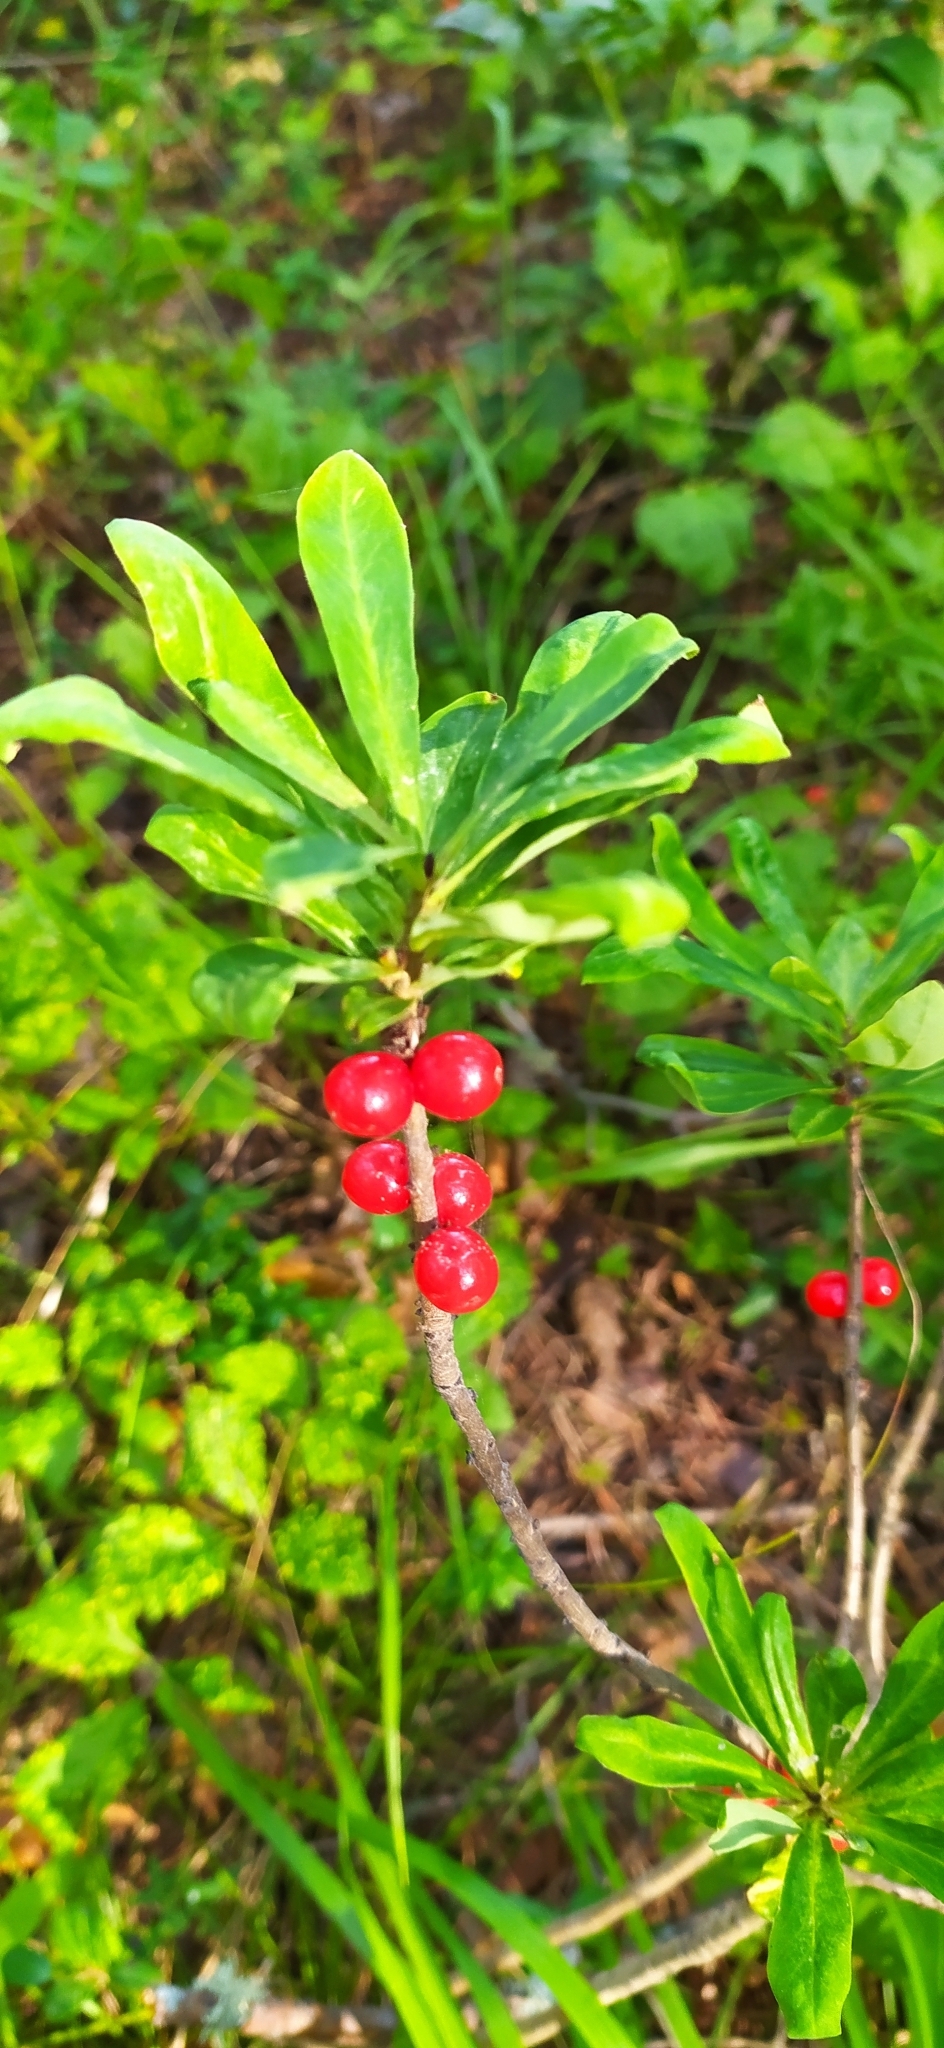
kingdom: Plantae
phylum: Tracheophyta
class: Magnoliopsida
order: Malvales
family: Thymelaeaceae
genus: Daphne
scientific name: Daphne mezereum
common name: Mezereon
